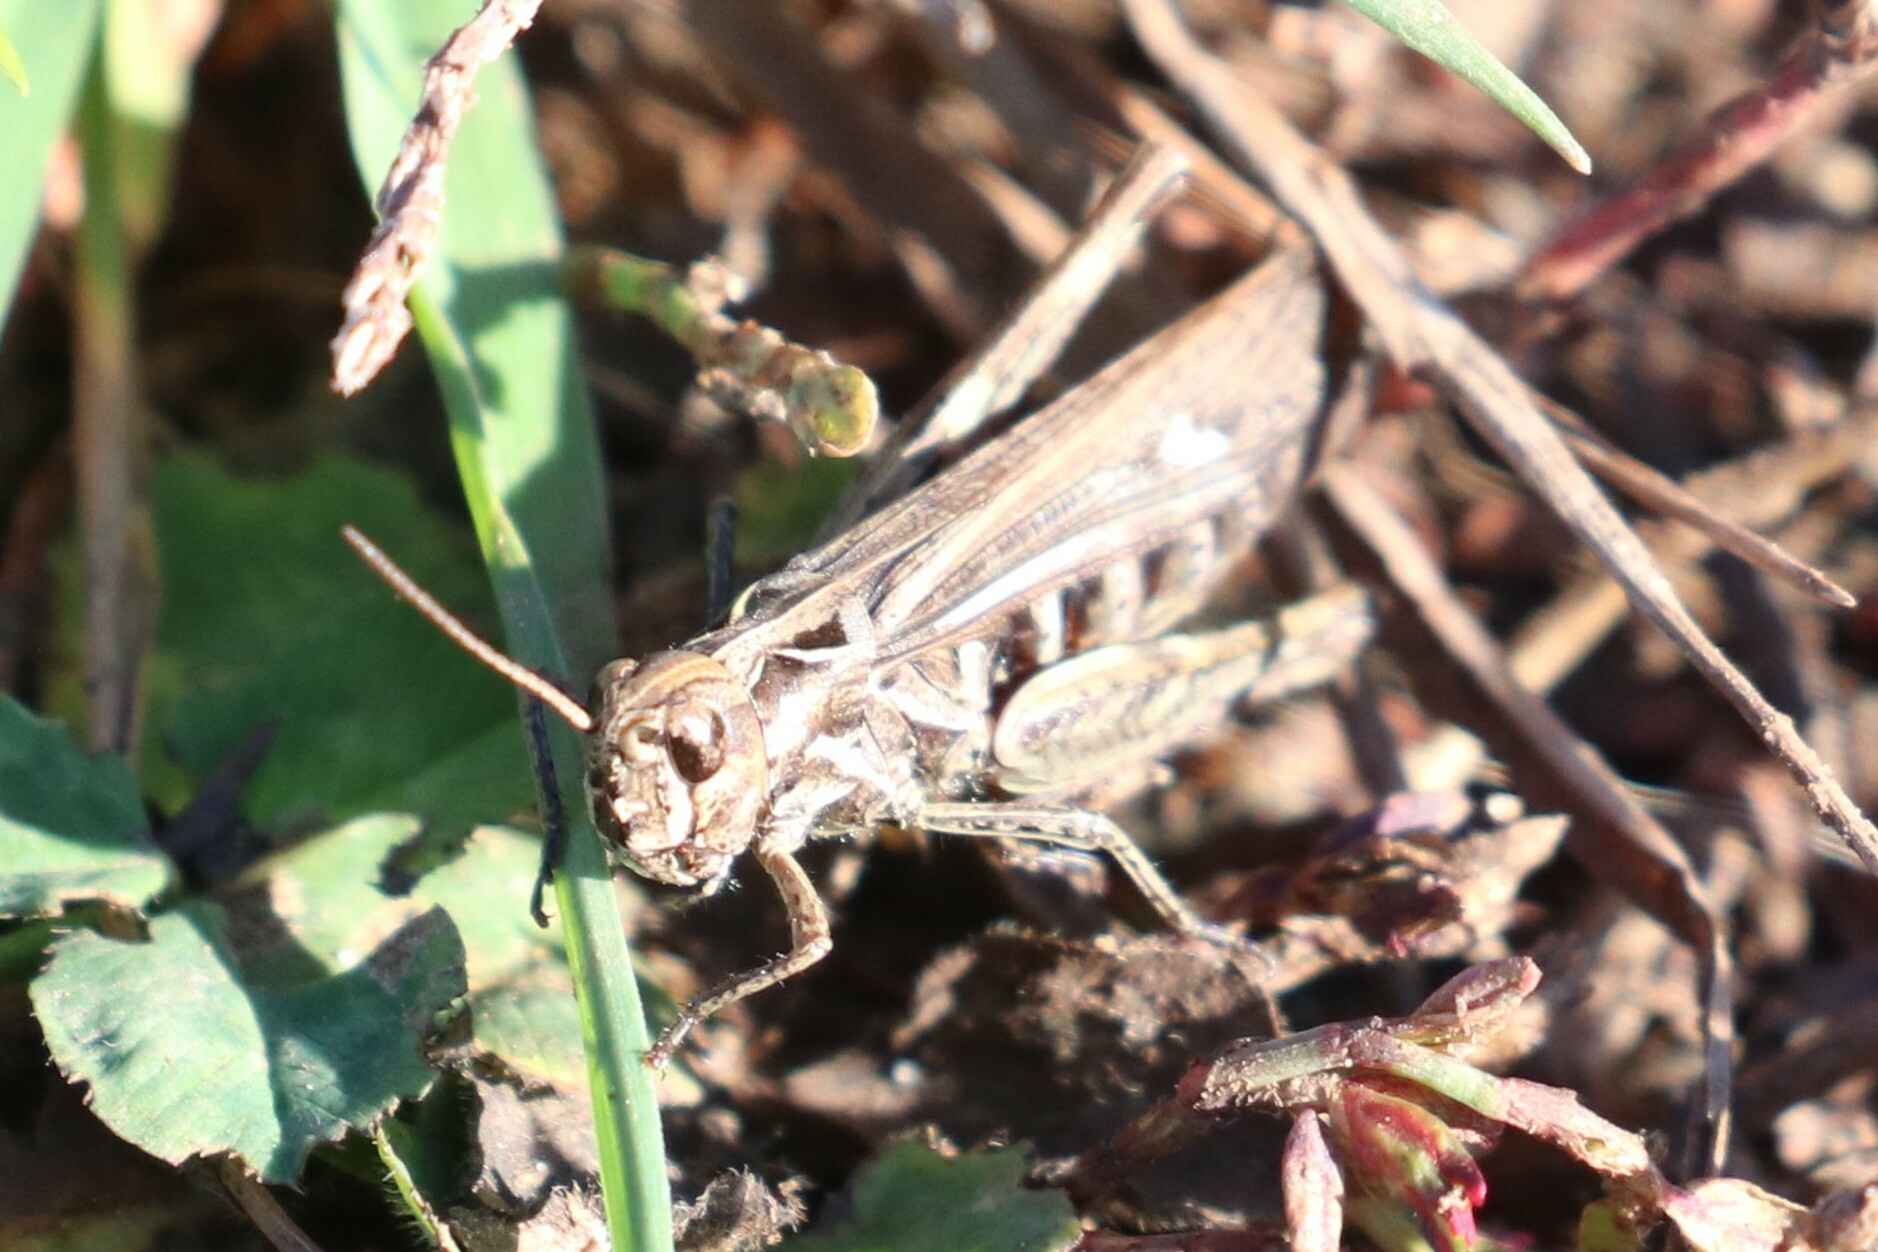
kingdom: Animalia
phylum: Arthropoda
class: Insecta
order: Orthoptera
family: Acrididae
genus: Chorthippus
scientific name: Chorthippus biguttulus
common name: Bow-winged grasshopper
